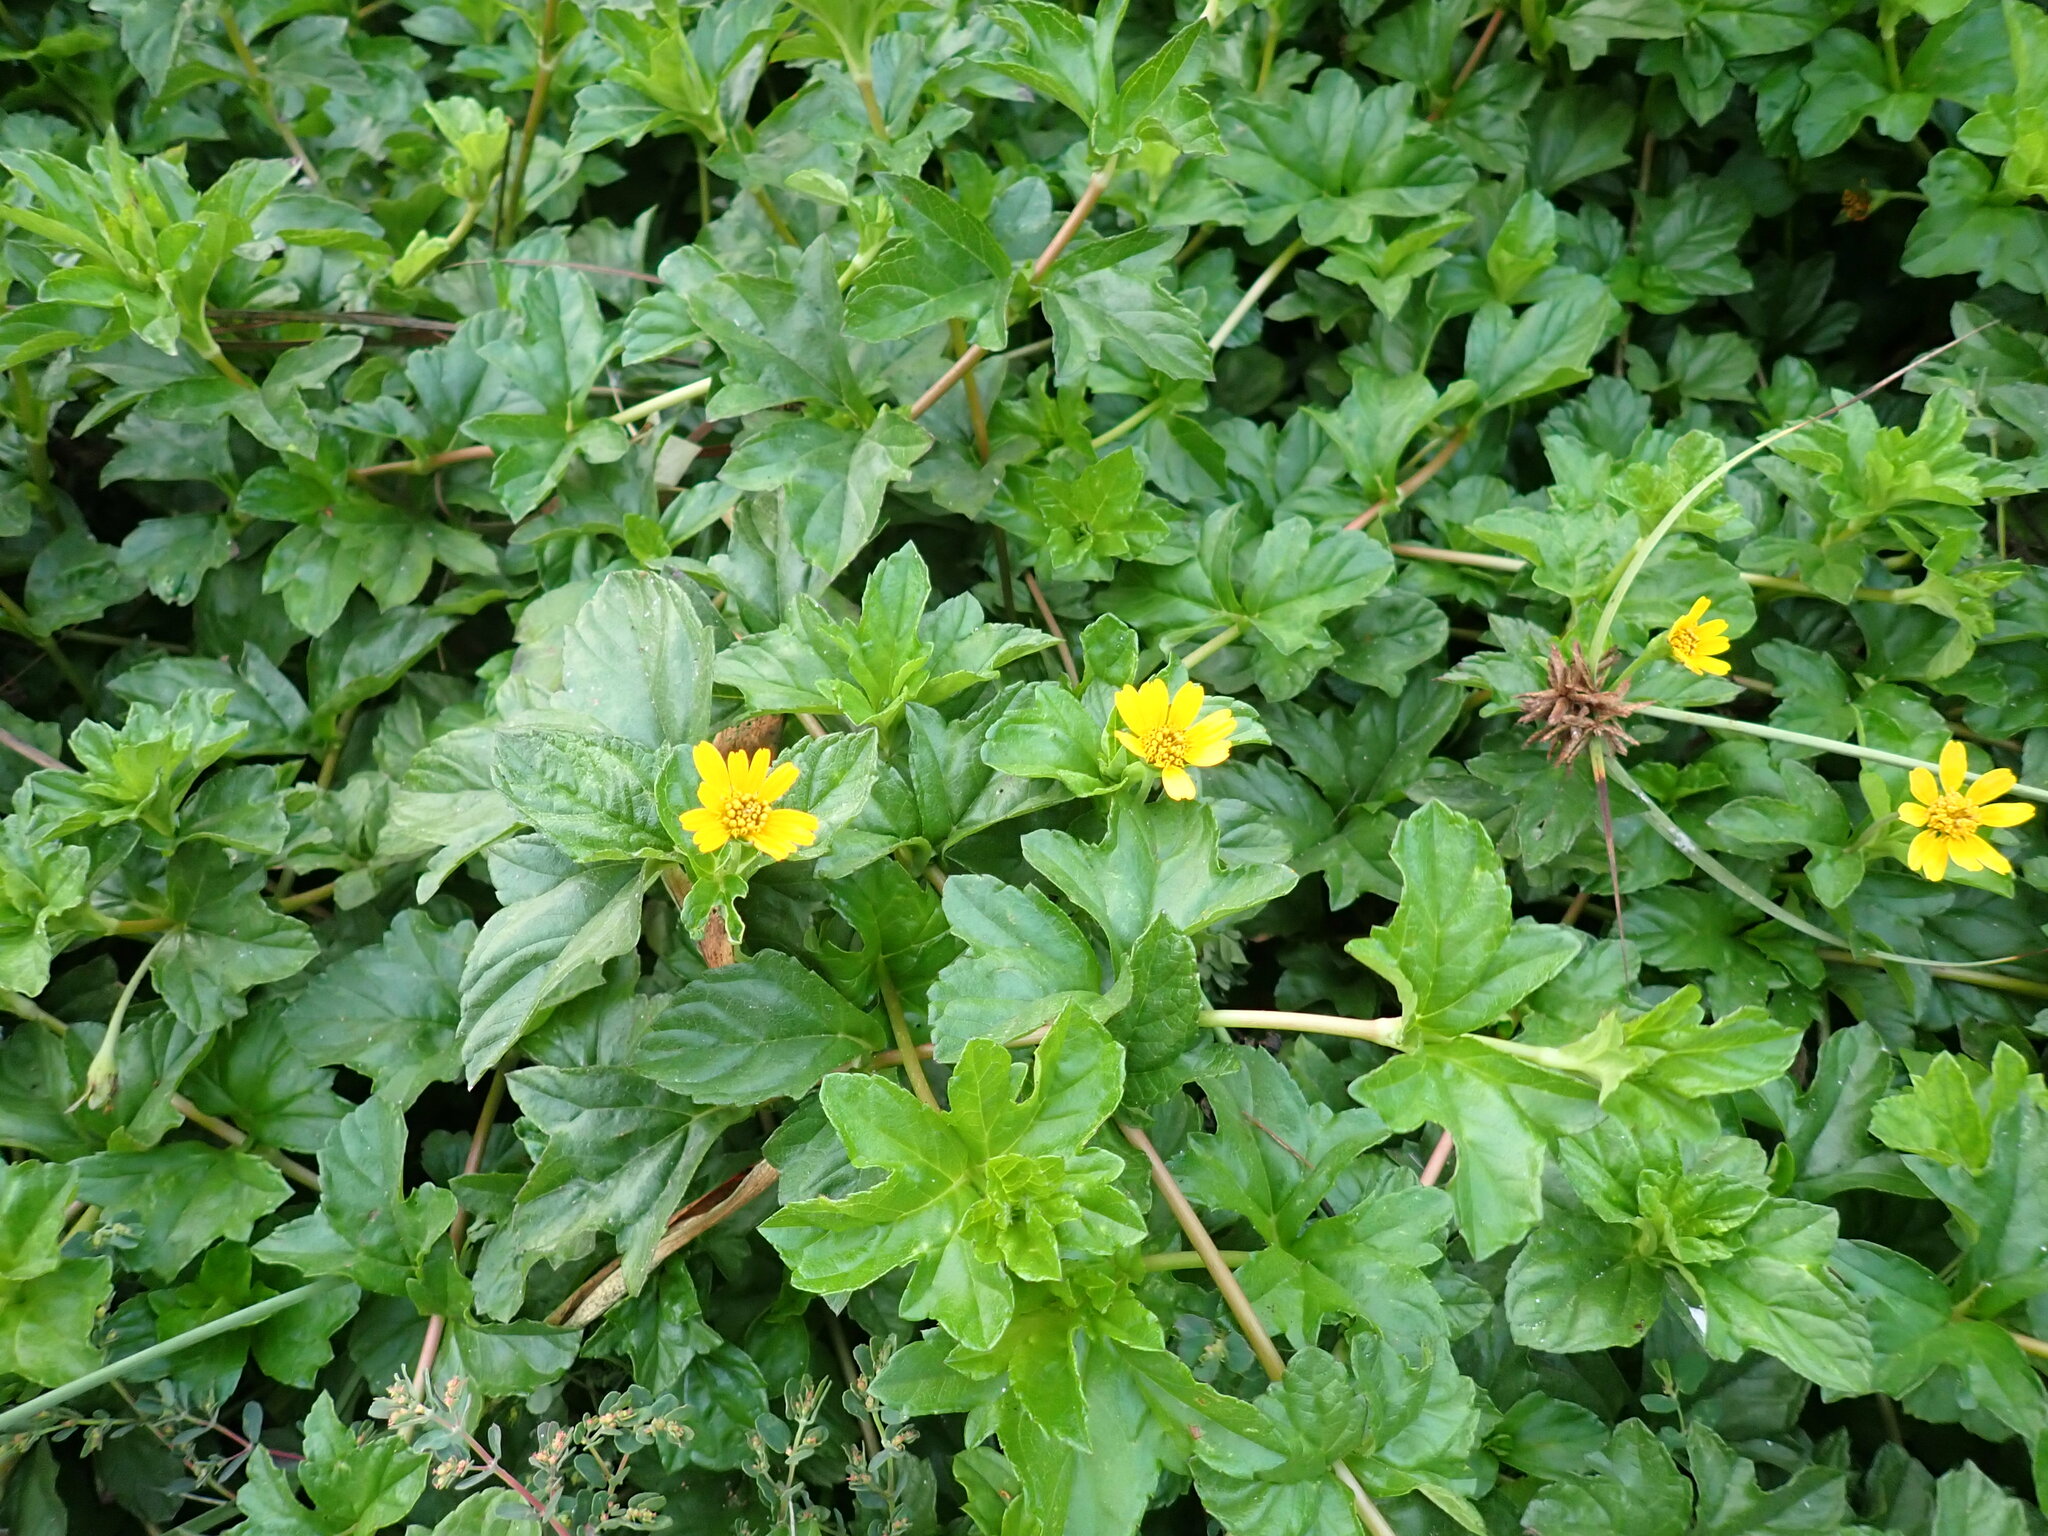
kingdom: Plantae
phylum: Tracheophyta
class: Magnoliopsida
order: Asterales
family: Asteraceae
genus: Sphagneticola
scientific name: Sphagneticola trilobata
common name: Bay biscayne creeping-oxeye
